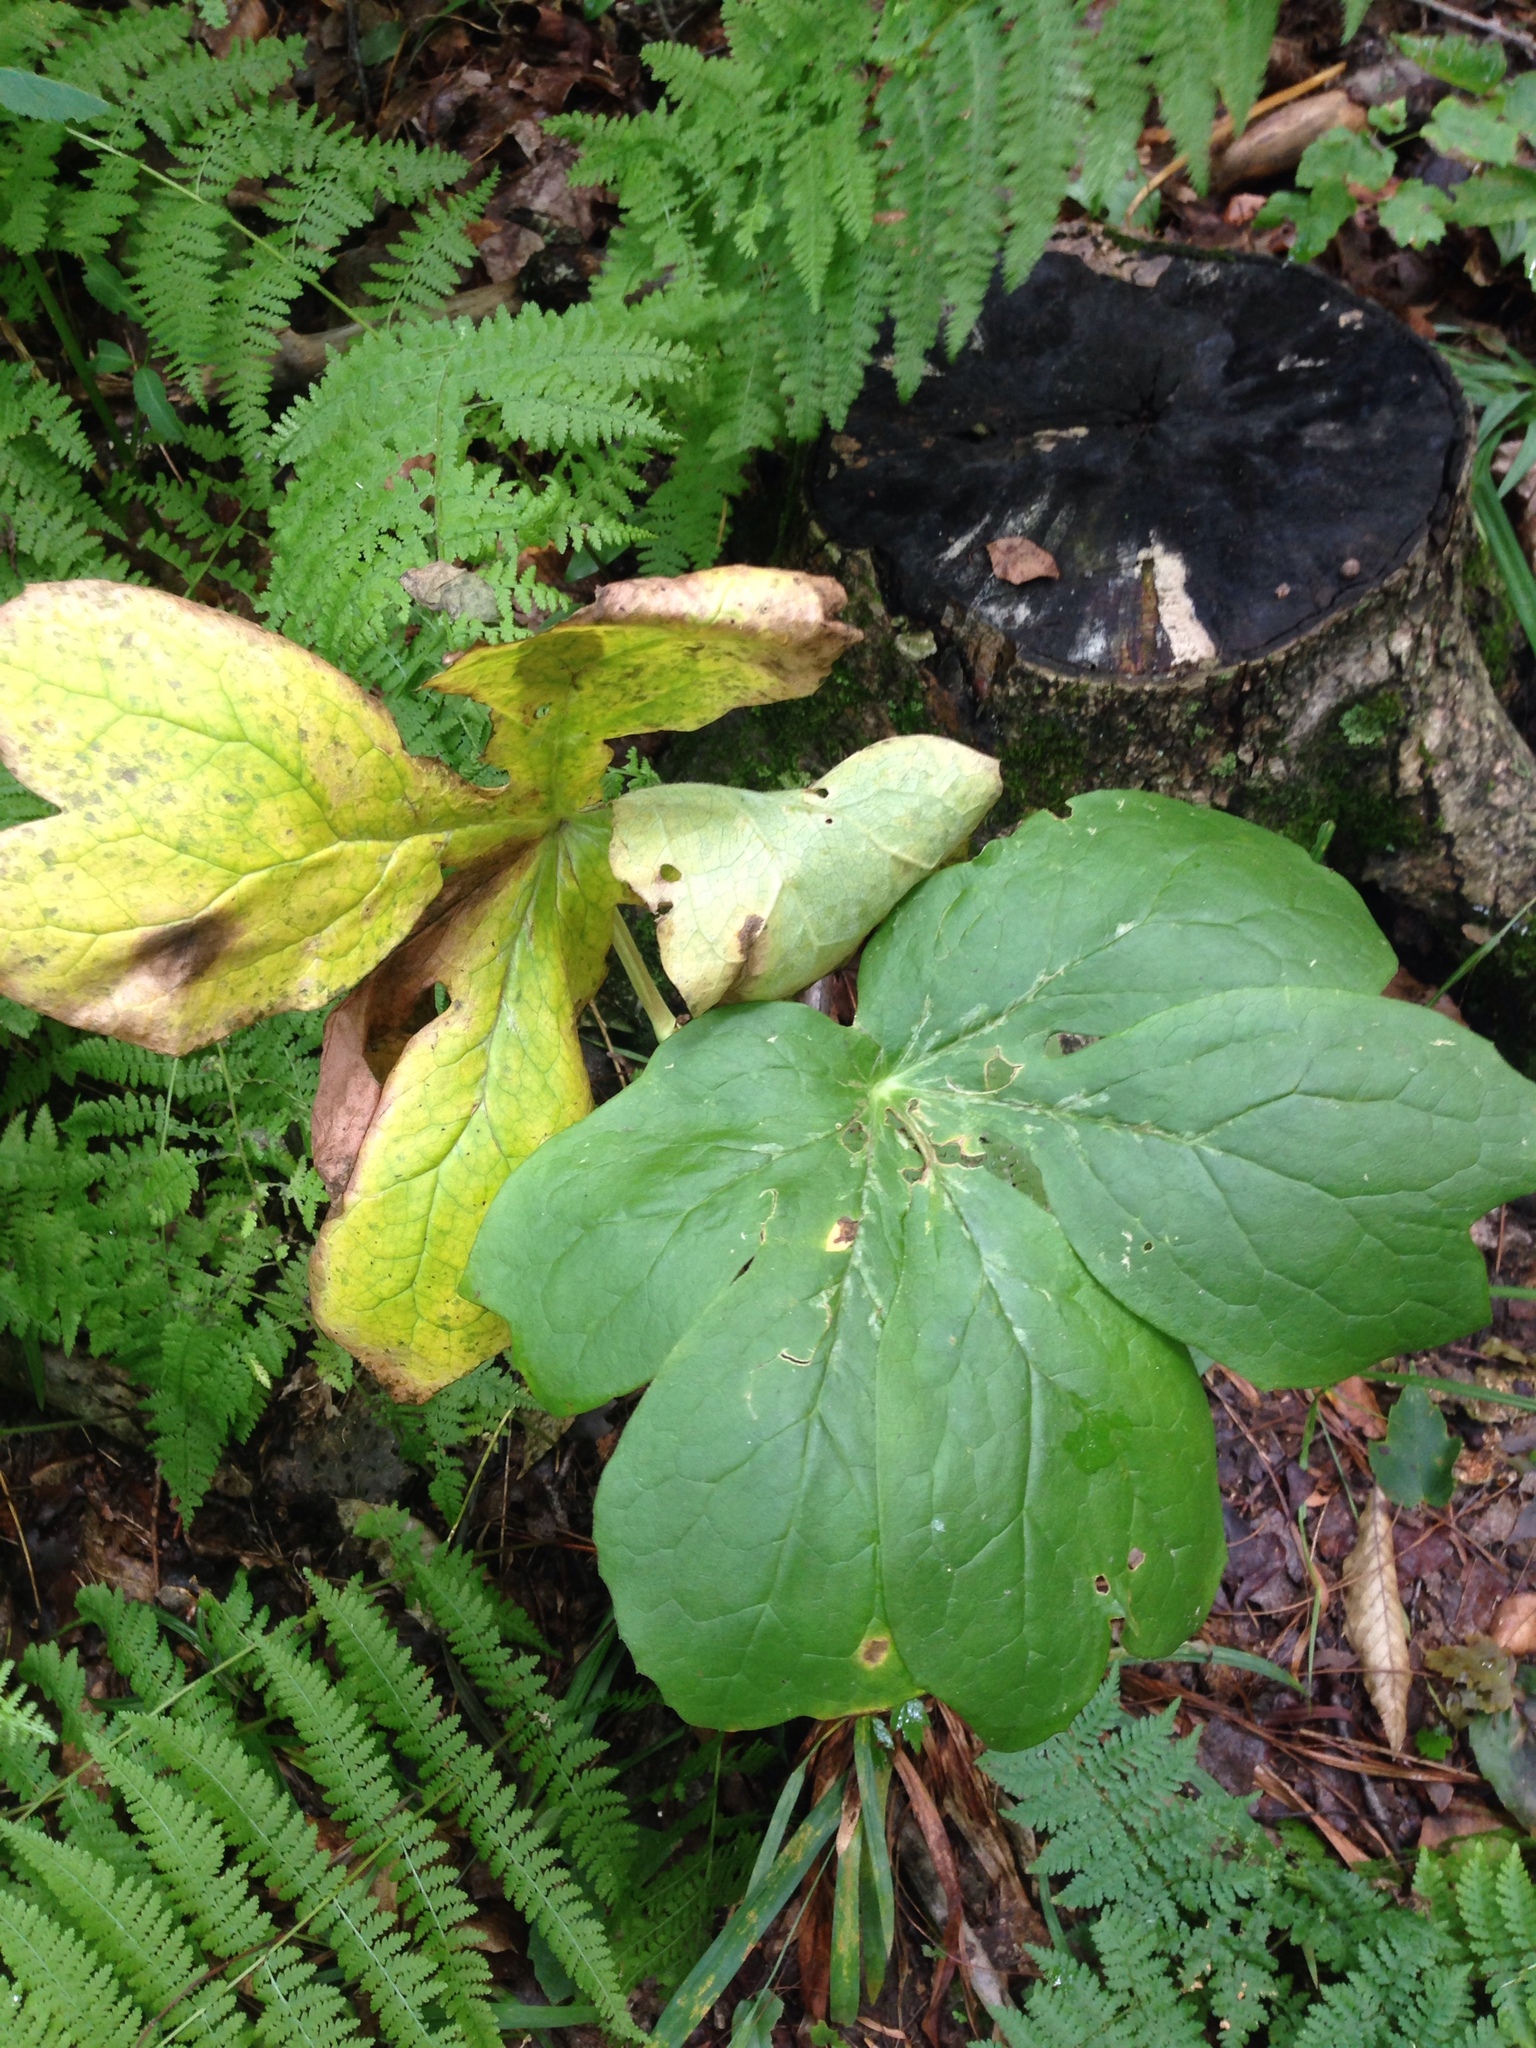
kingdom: Plantae
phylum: Tracheophyta
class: Magnoliopsida
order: Ranunculales
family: Berberidaceae
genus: Podophyllum
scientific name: Podophyllum peltatum
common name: Wild mandrake
